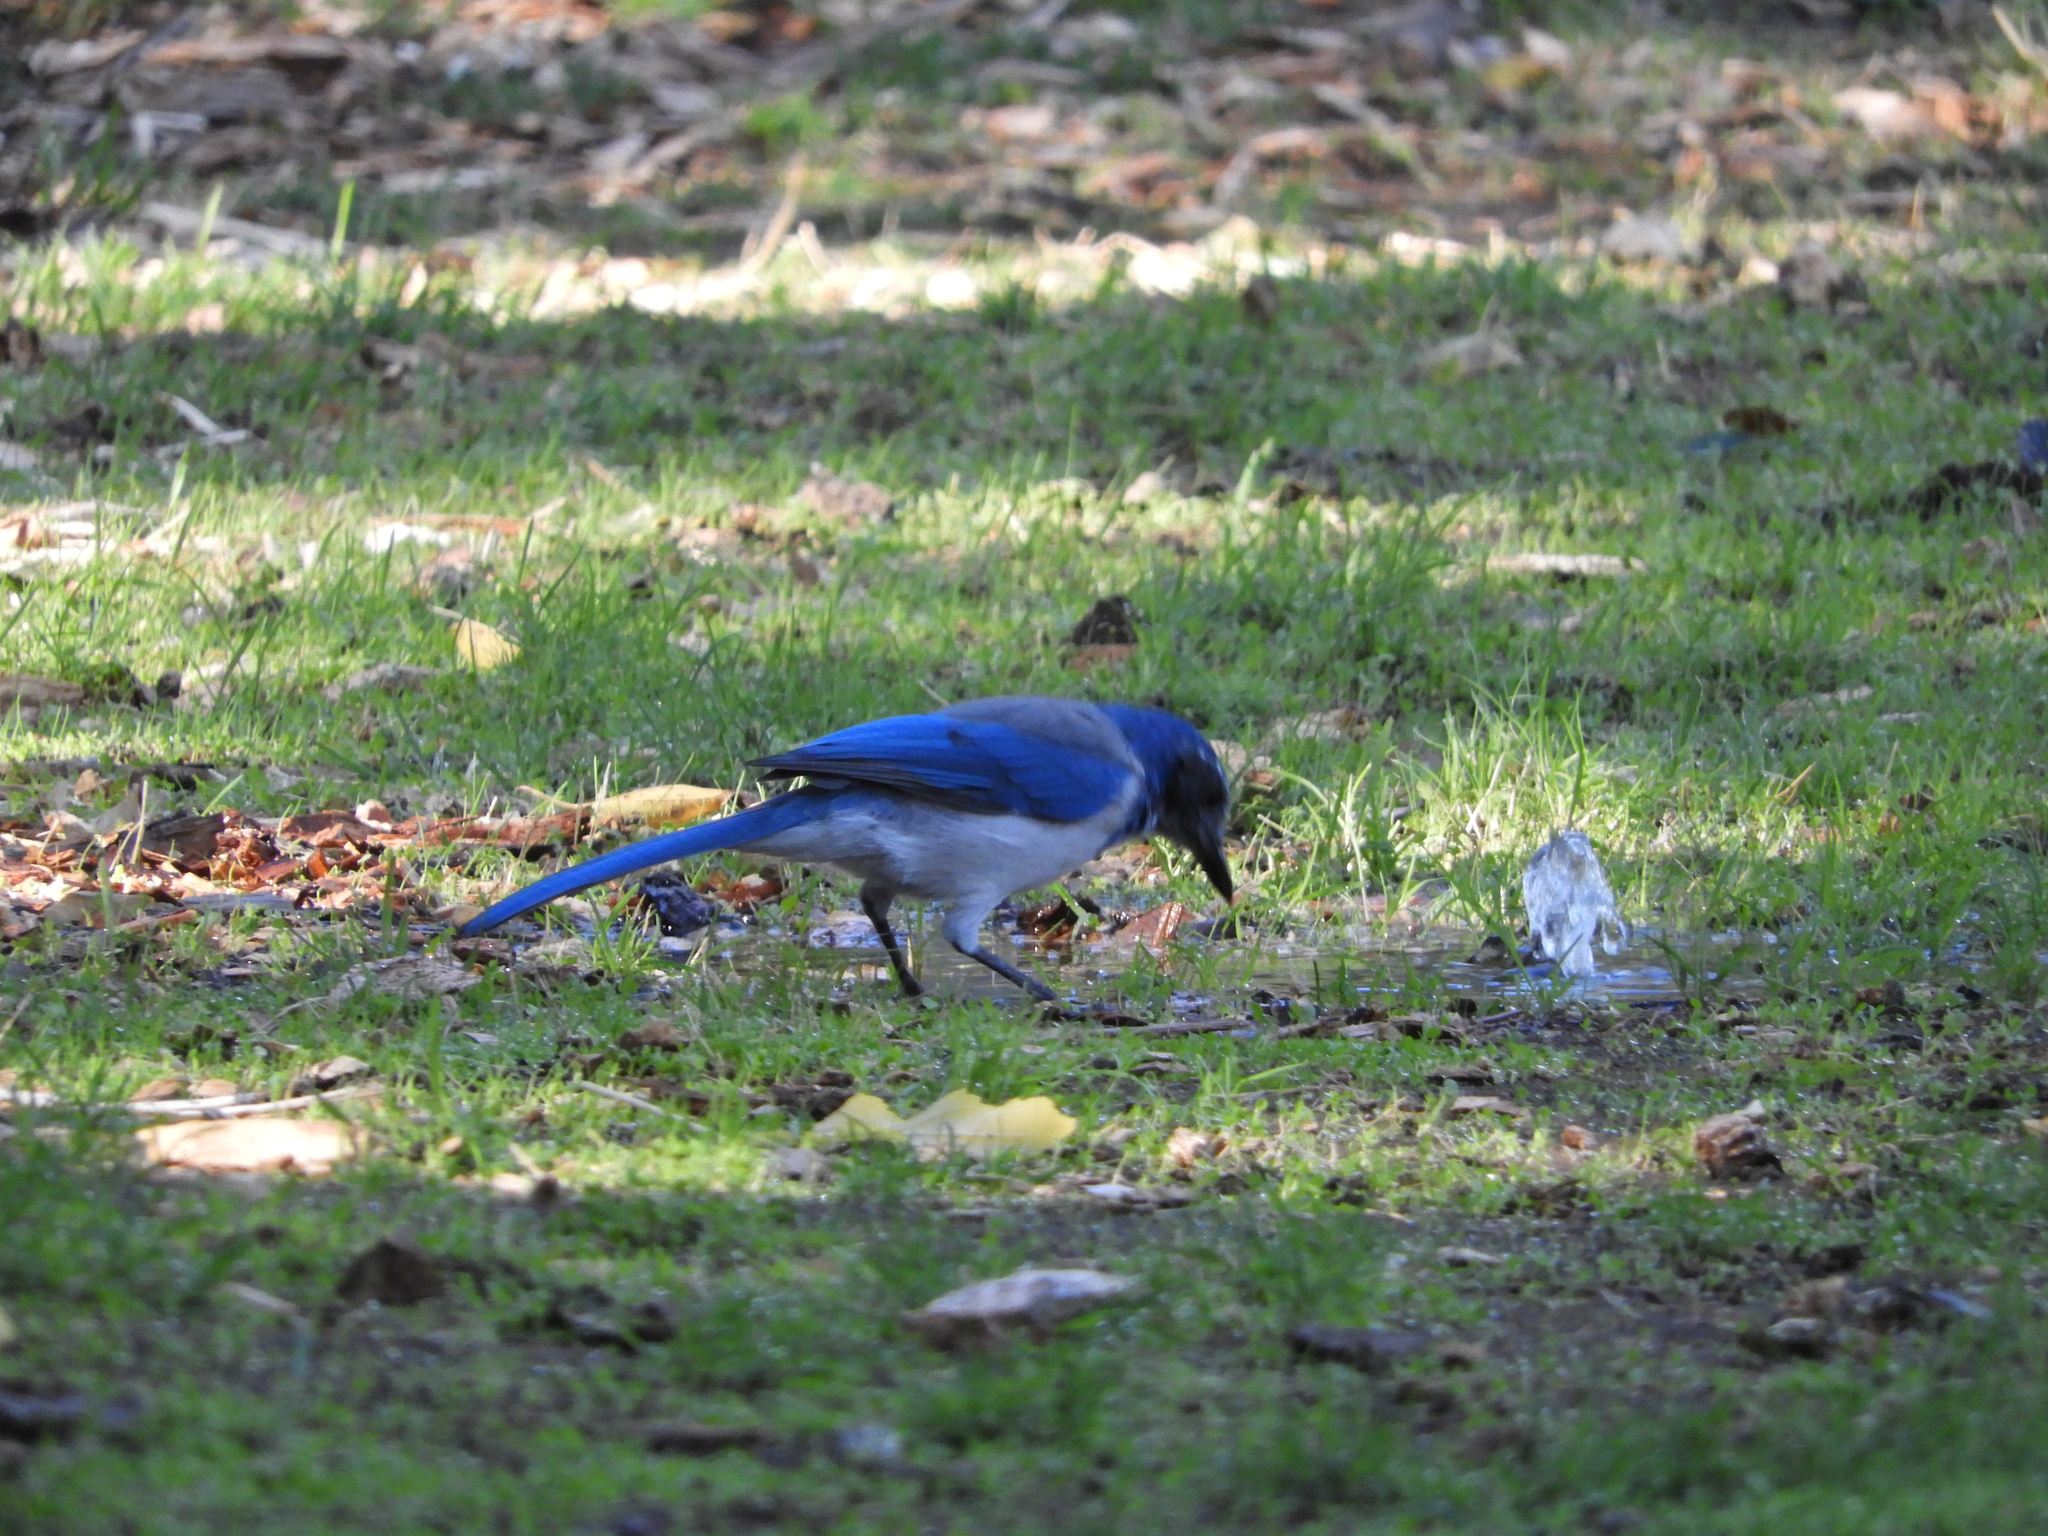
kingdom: Animalia
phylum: Chordata
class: Aves
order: Passeriformes
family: Corvidae
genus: Aphelocoma
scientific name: Aphelocoma californica
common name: California scrub-jay
